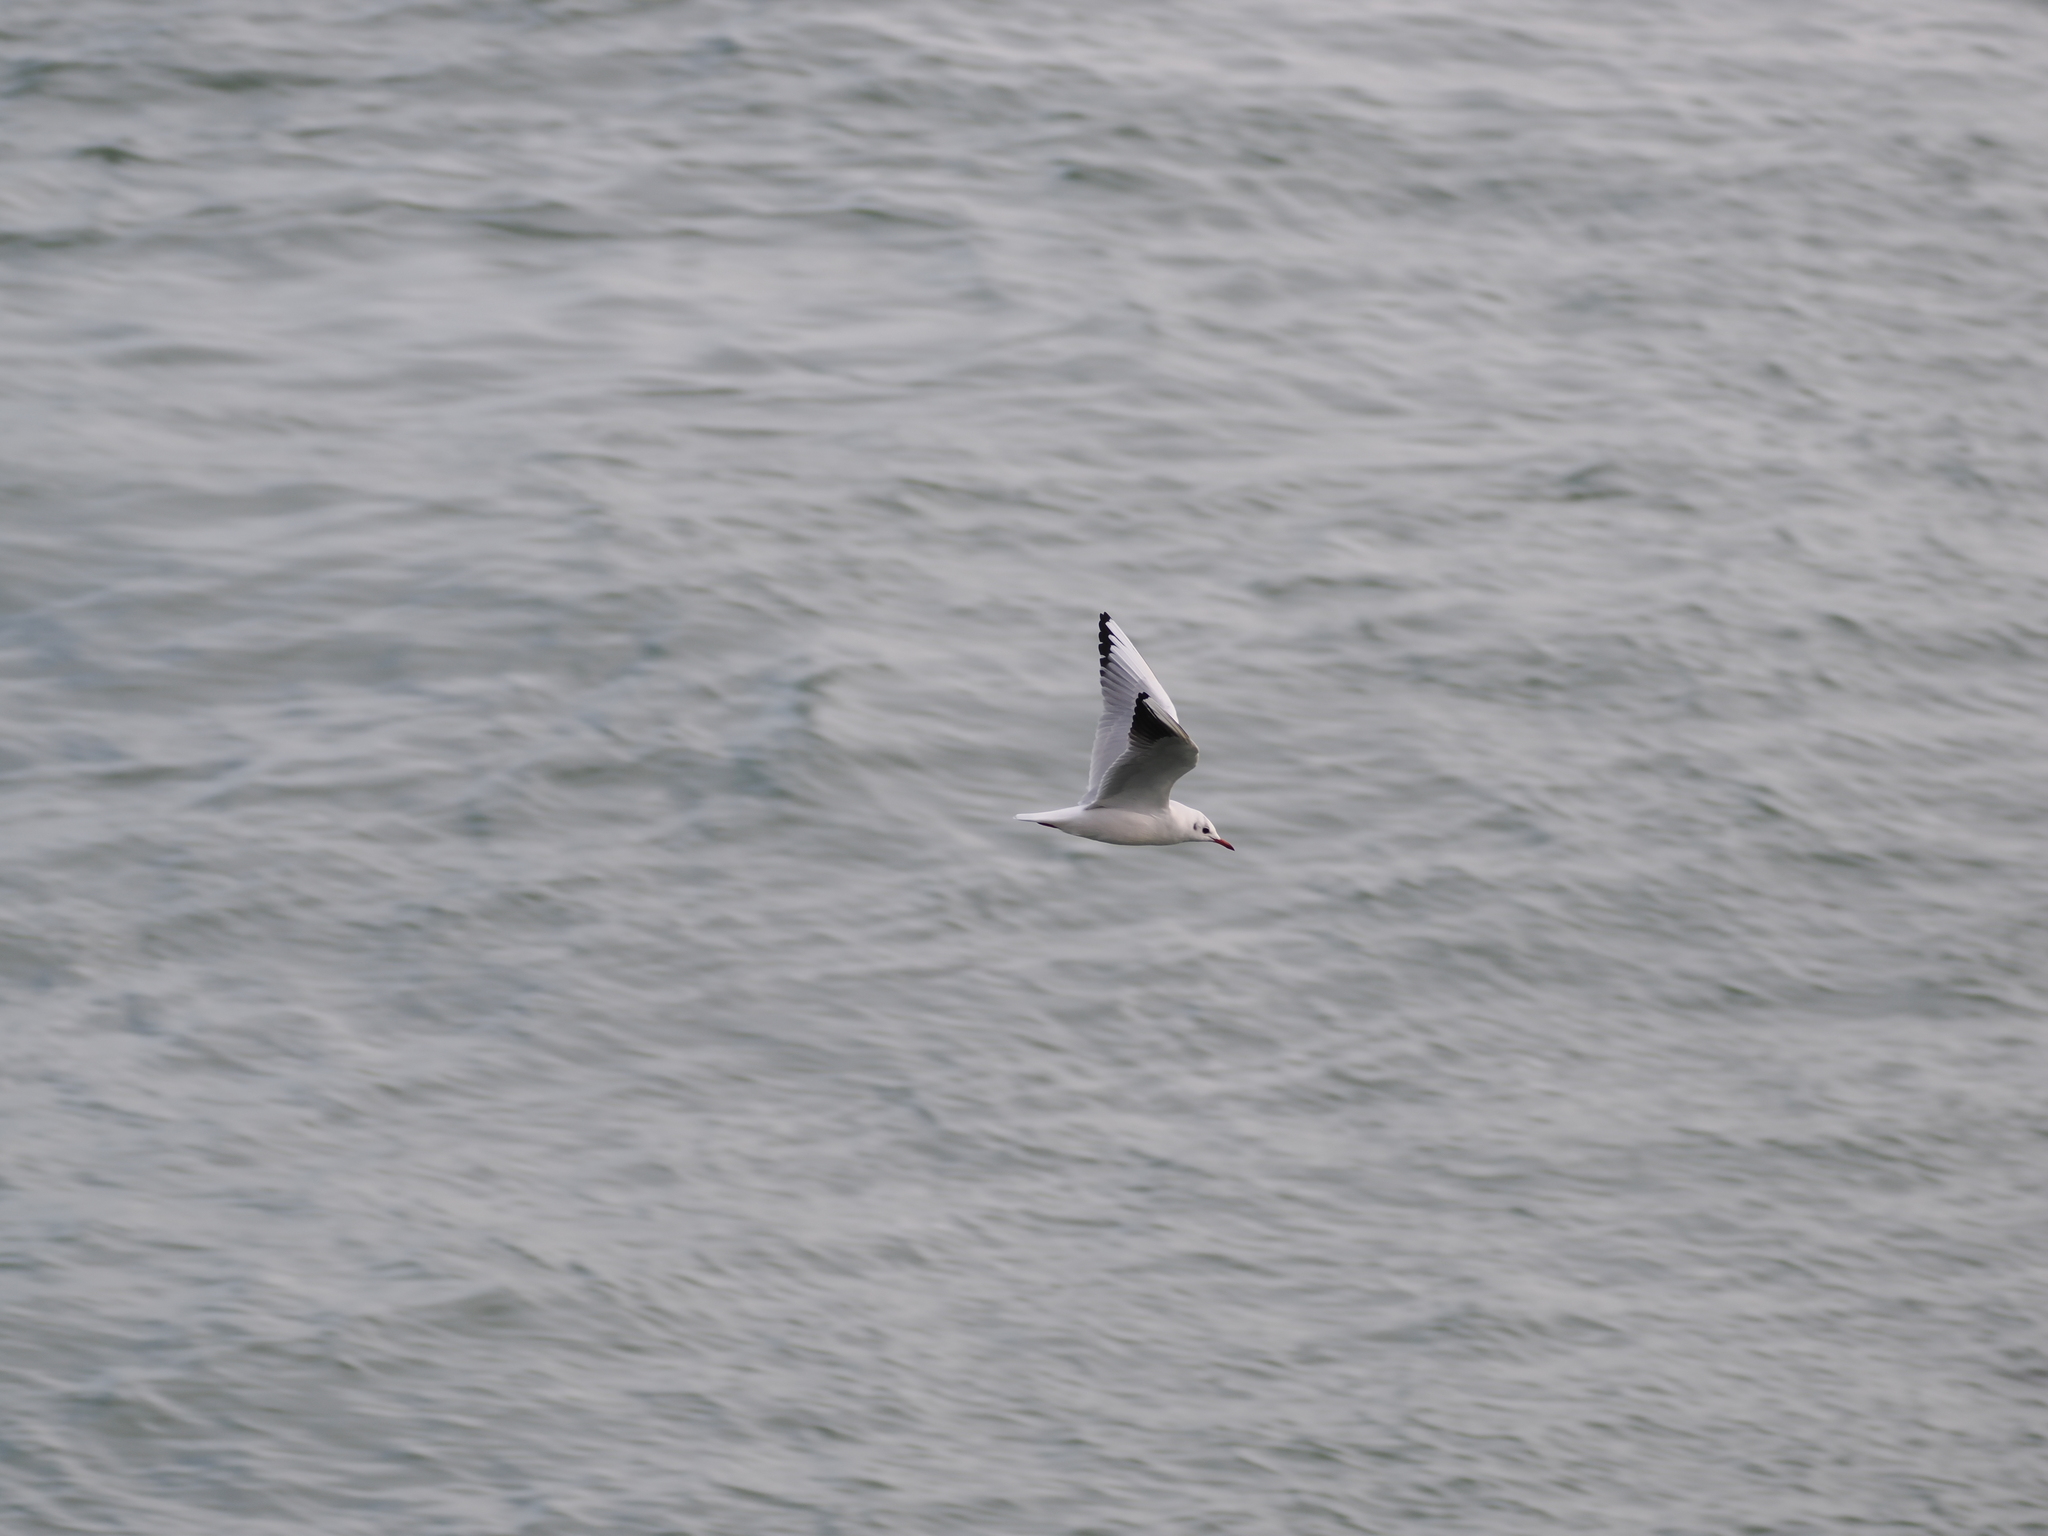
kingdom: Animalia
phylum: Chordata
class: Aves
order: Charadriiformes
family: Laridae
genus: Chroicocephalus
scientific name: Chroicocephalus ridibundus
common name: Black-headed gull
